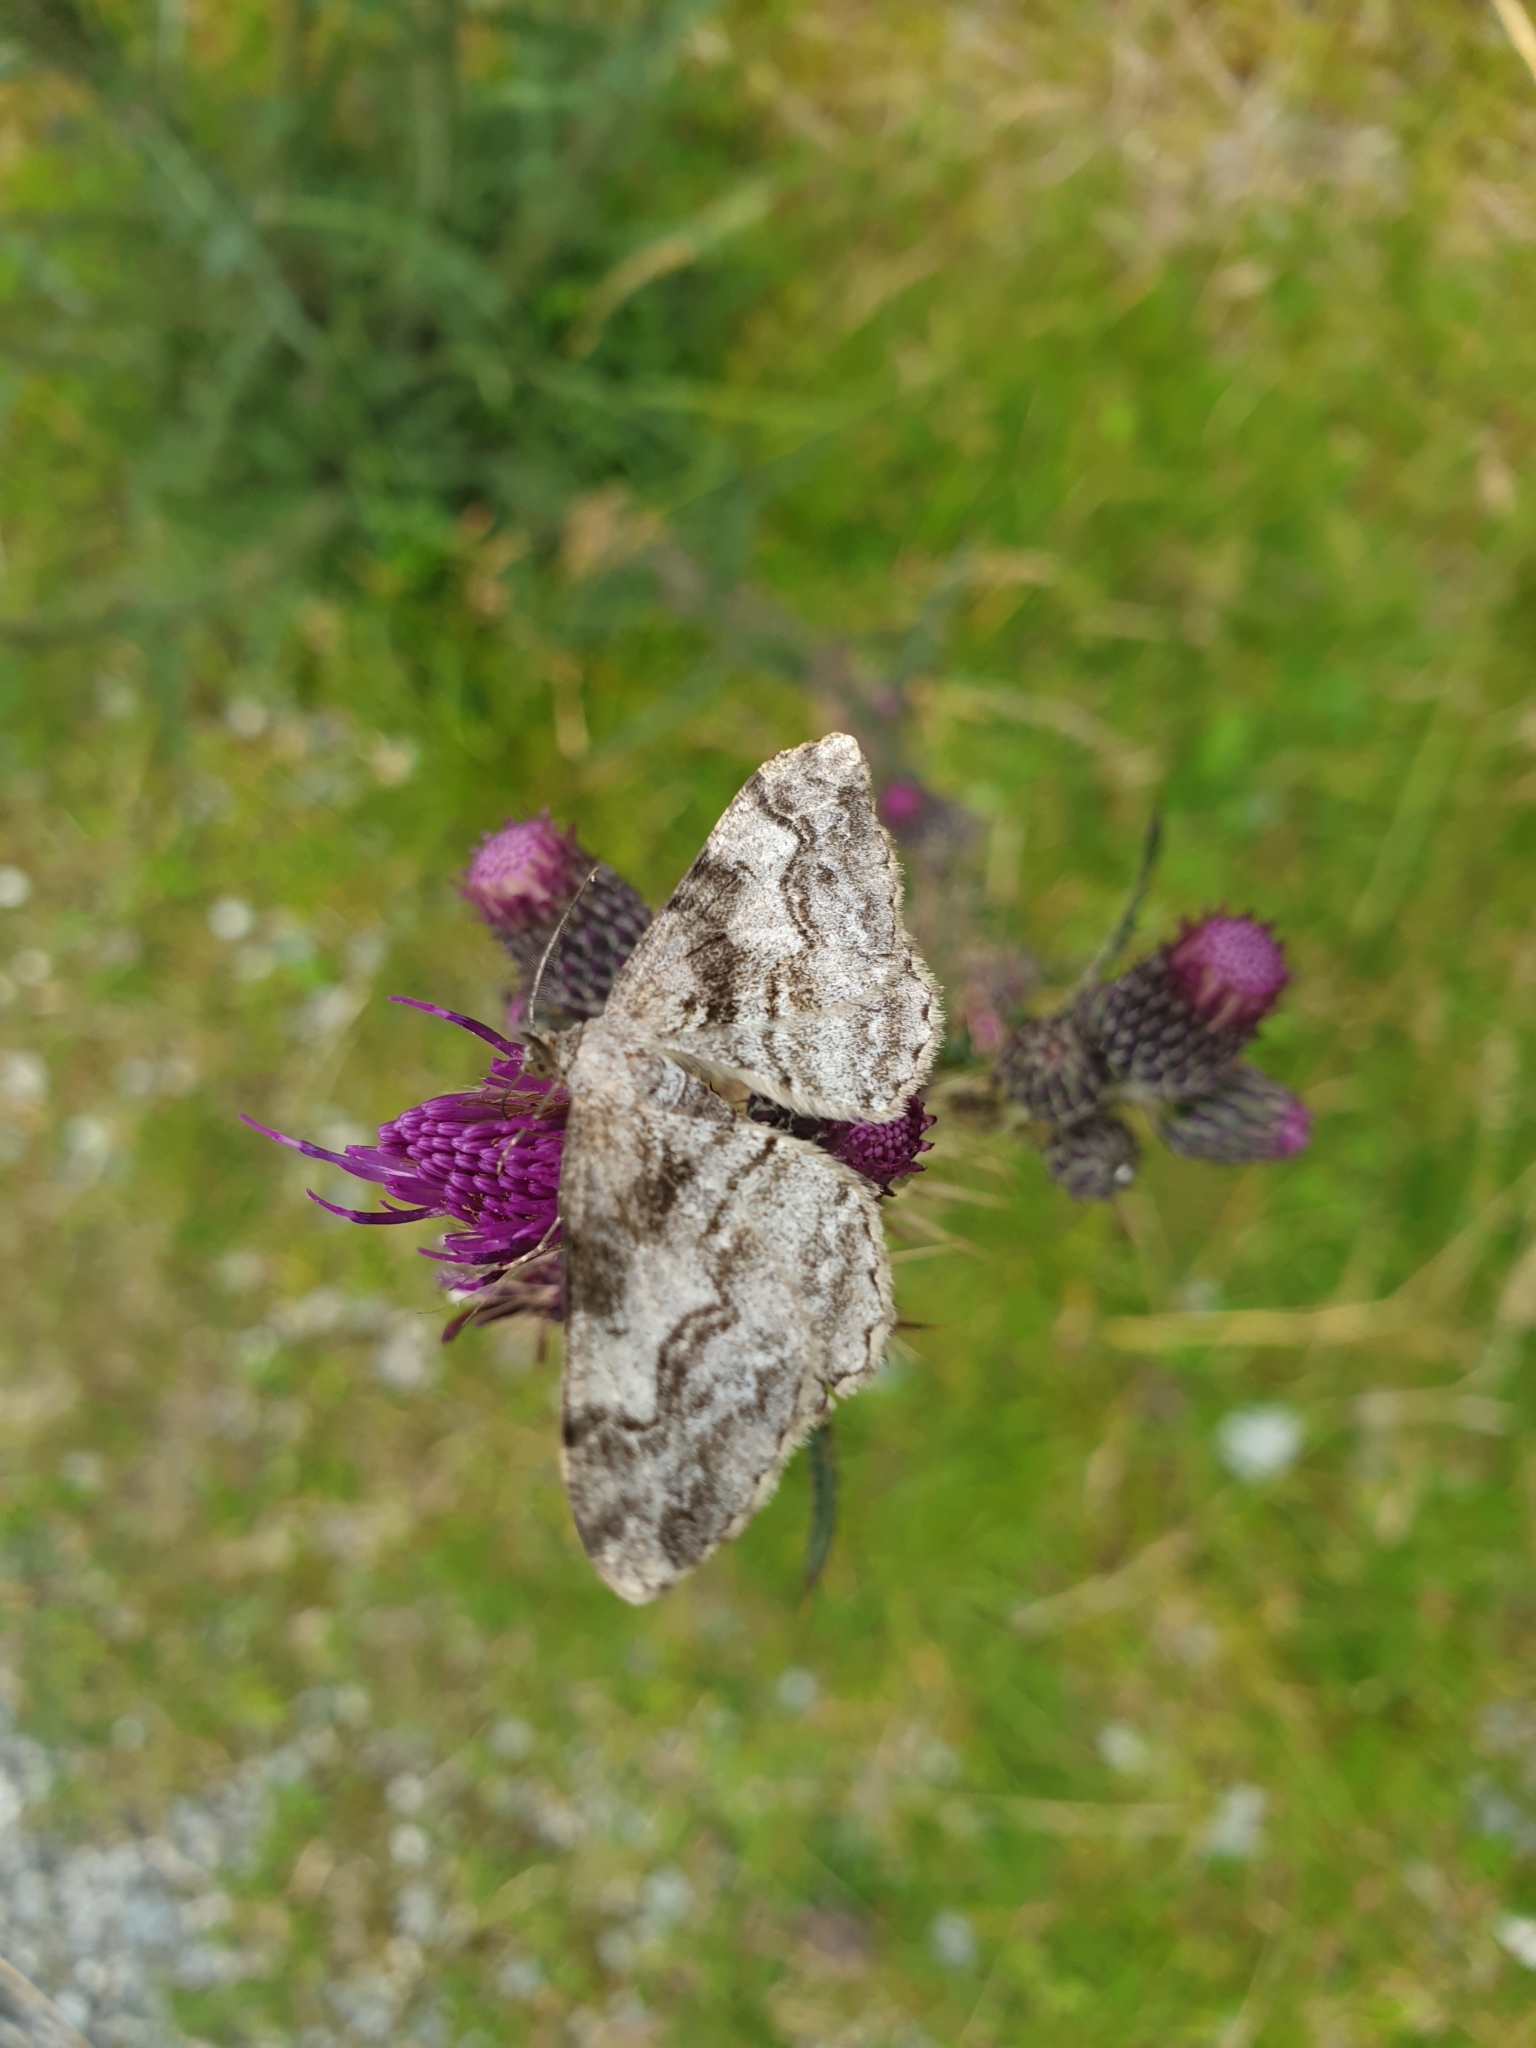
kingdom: Animalia
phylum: Arthropoda
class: Insecta
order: Lepidoptera
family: Geometridae
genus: Alcis
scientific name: Alcis repandata
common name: Mottled beauty
